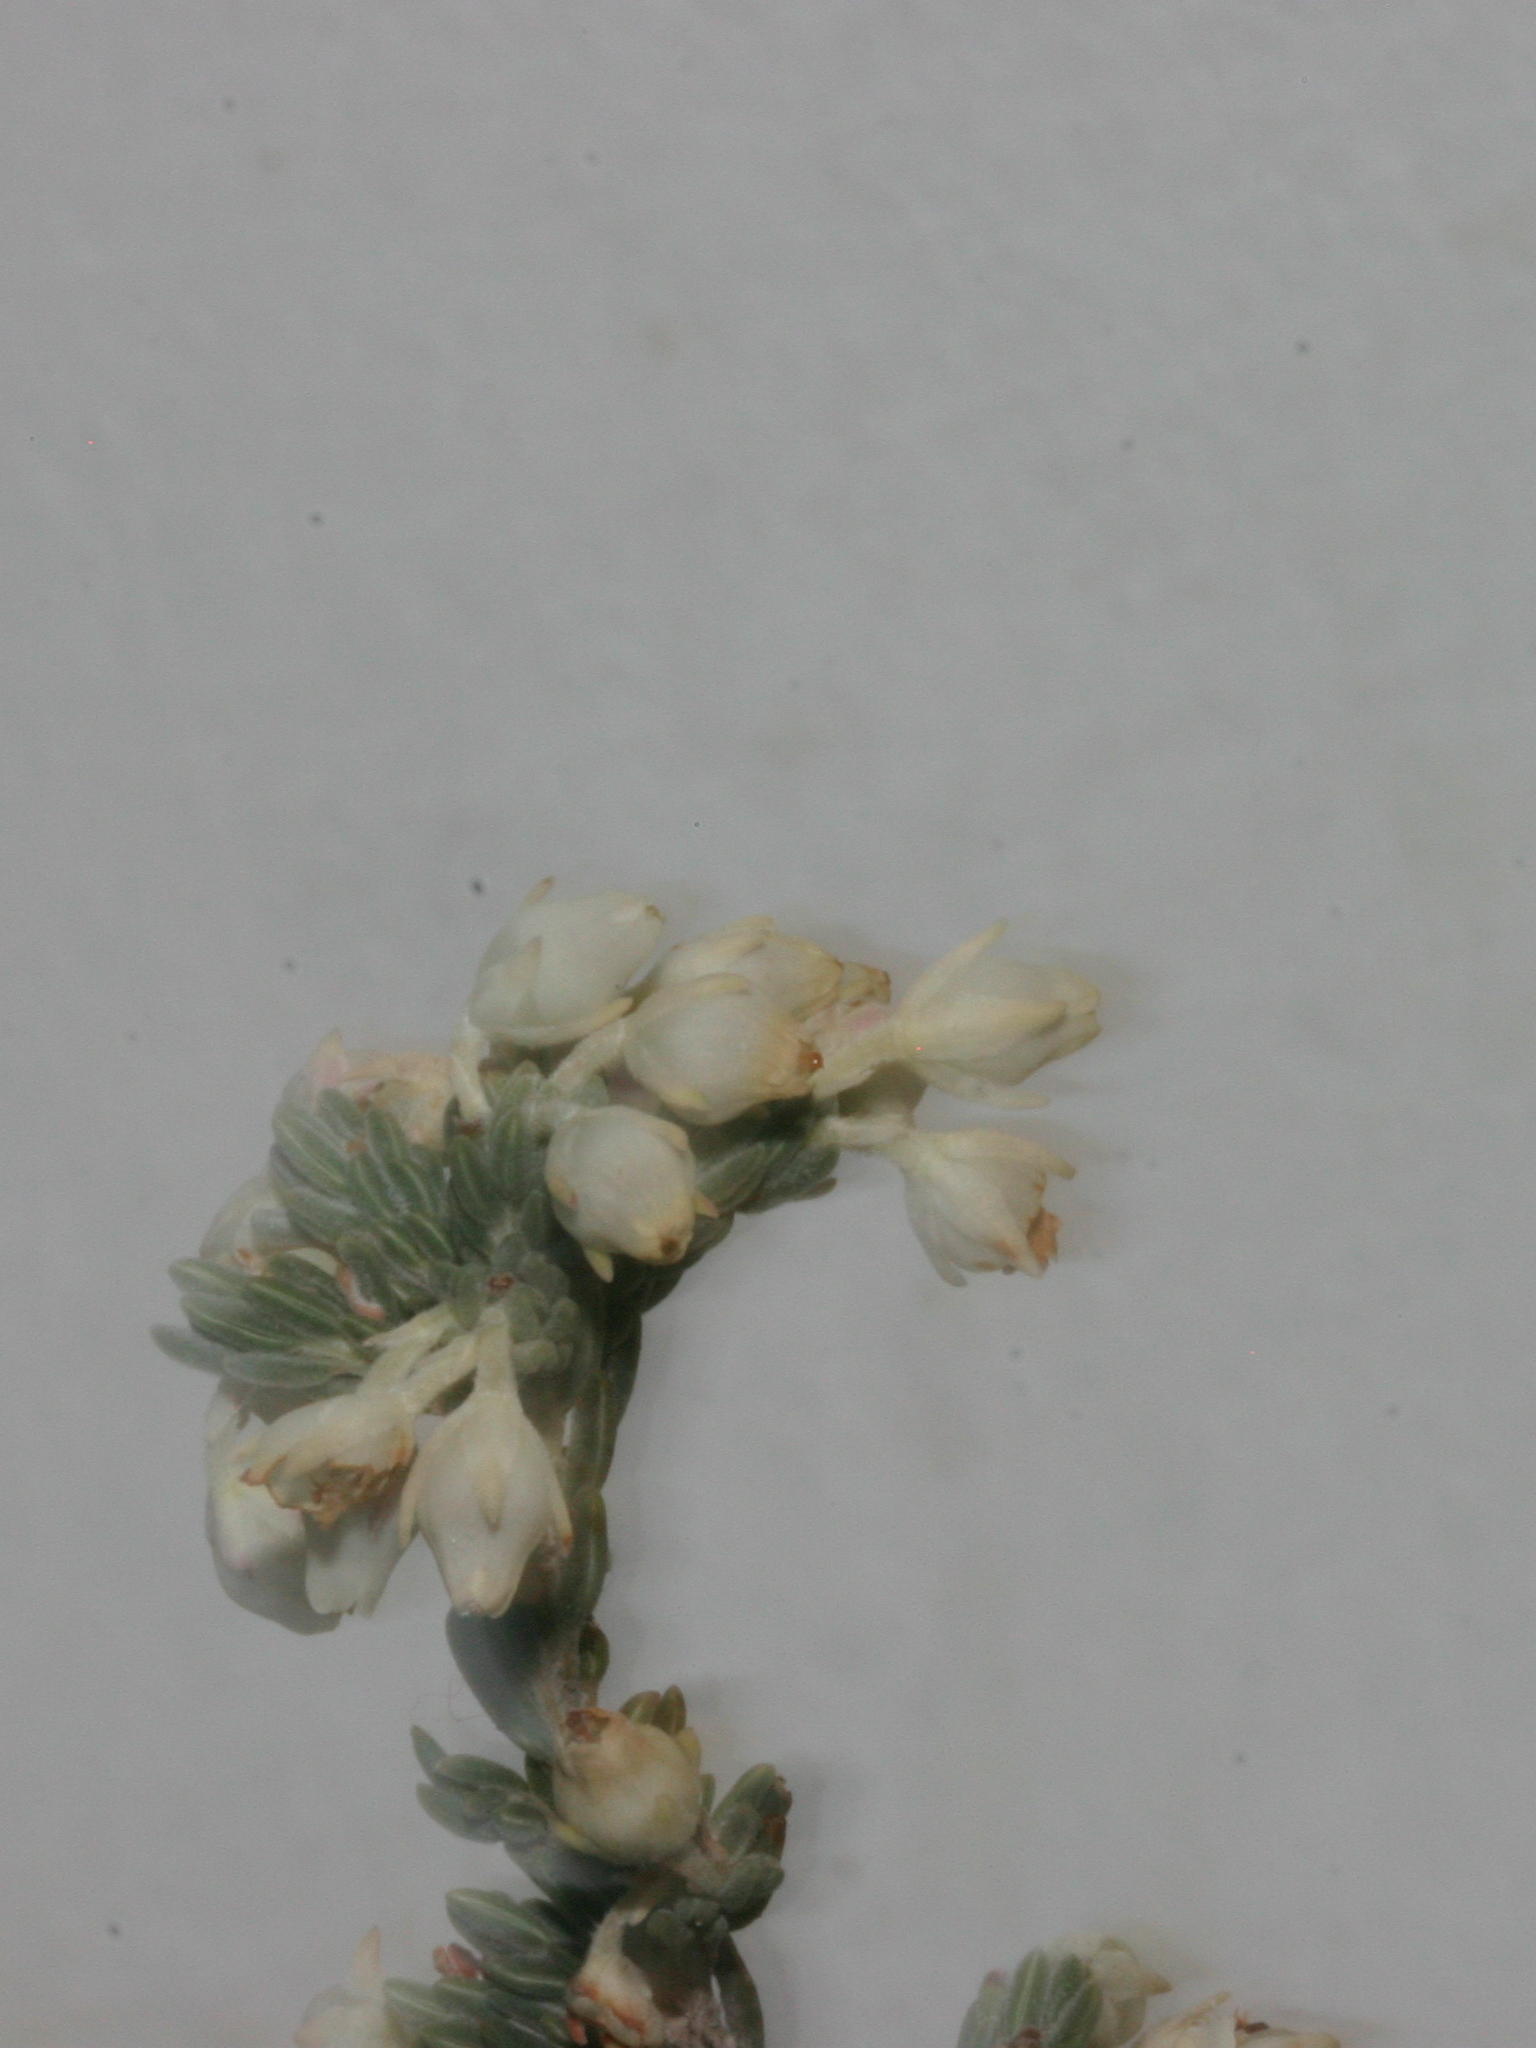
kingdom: Plantae
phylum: Tracheophyta
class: Magnoliopsida
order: Ericales
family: Ericaceae
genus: Erica
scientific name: Erica leucodesmia
